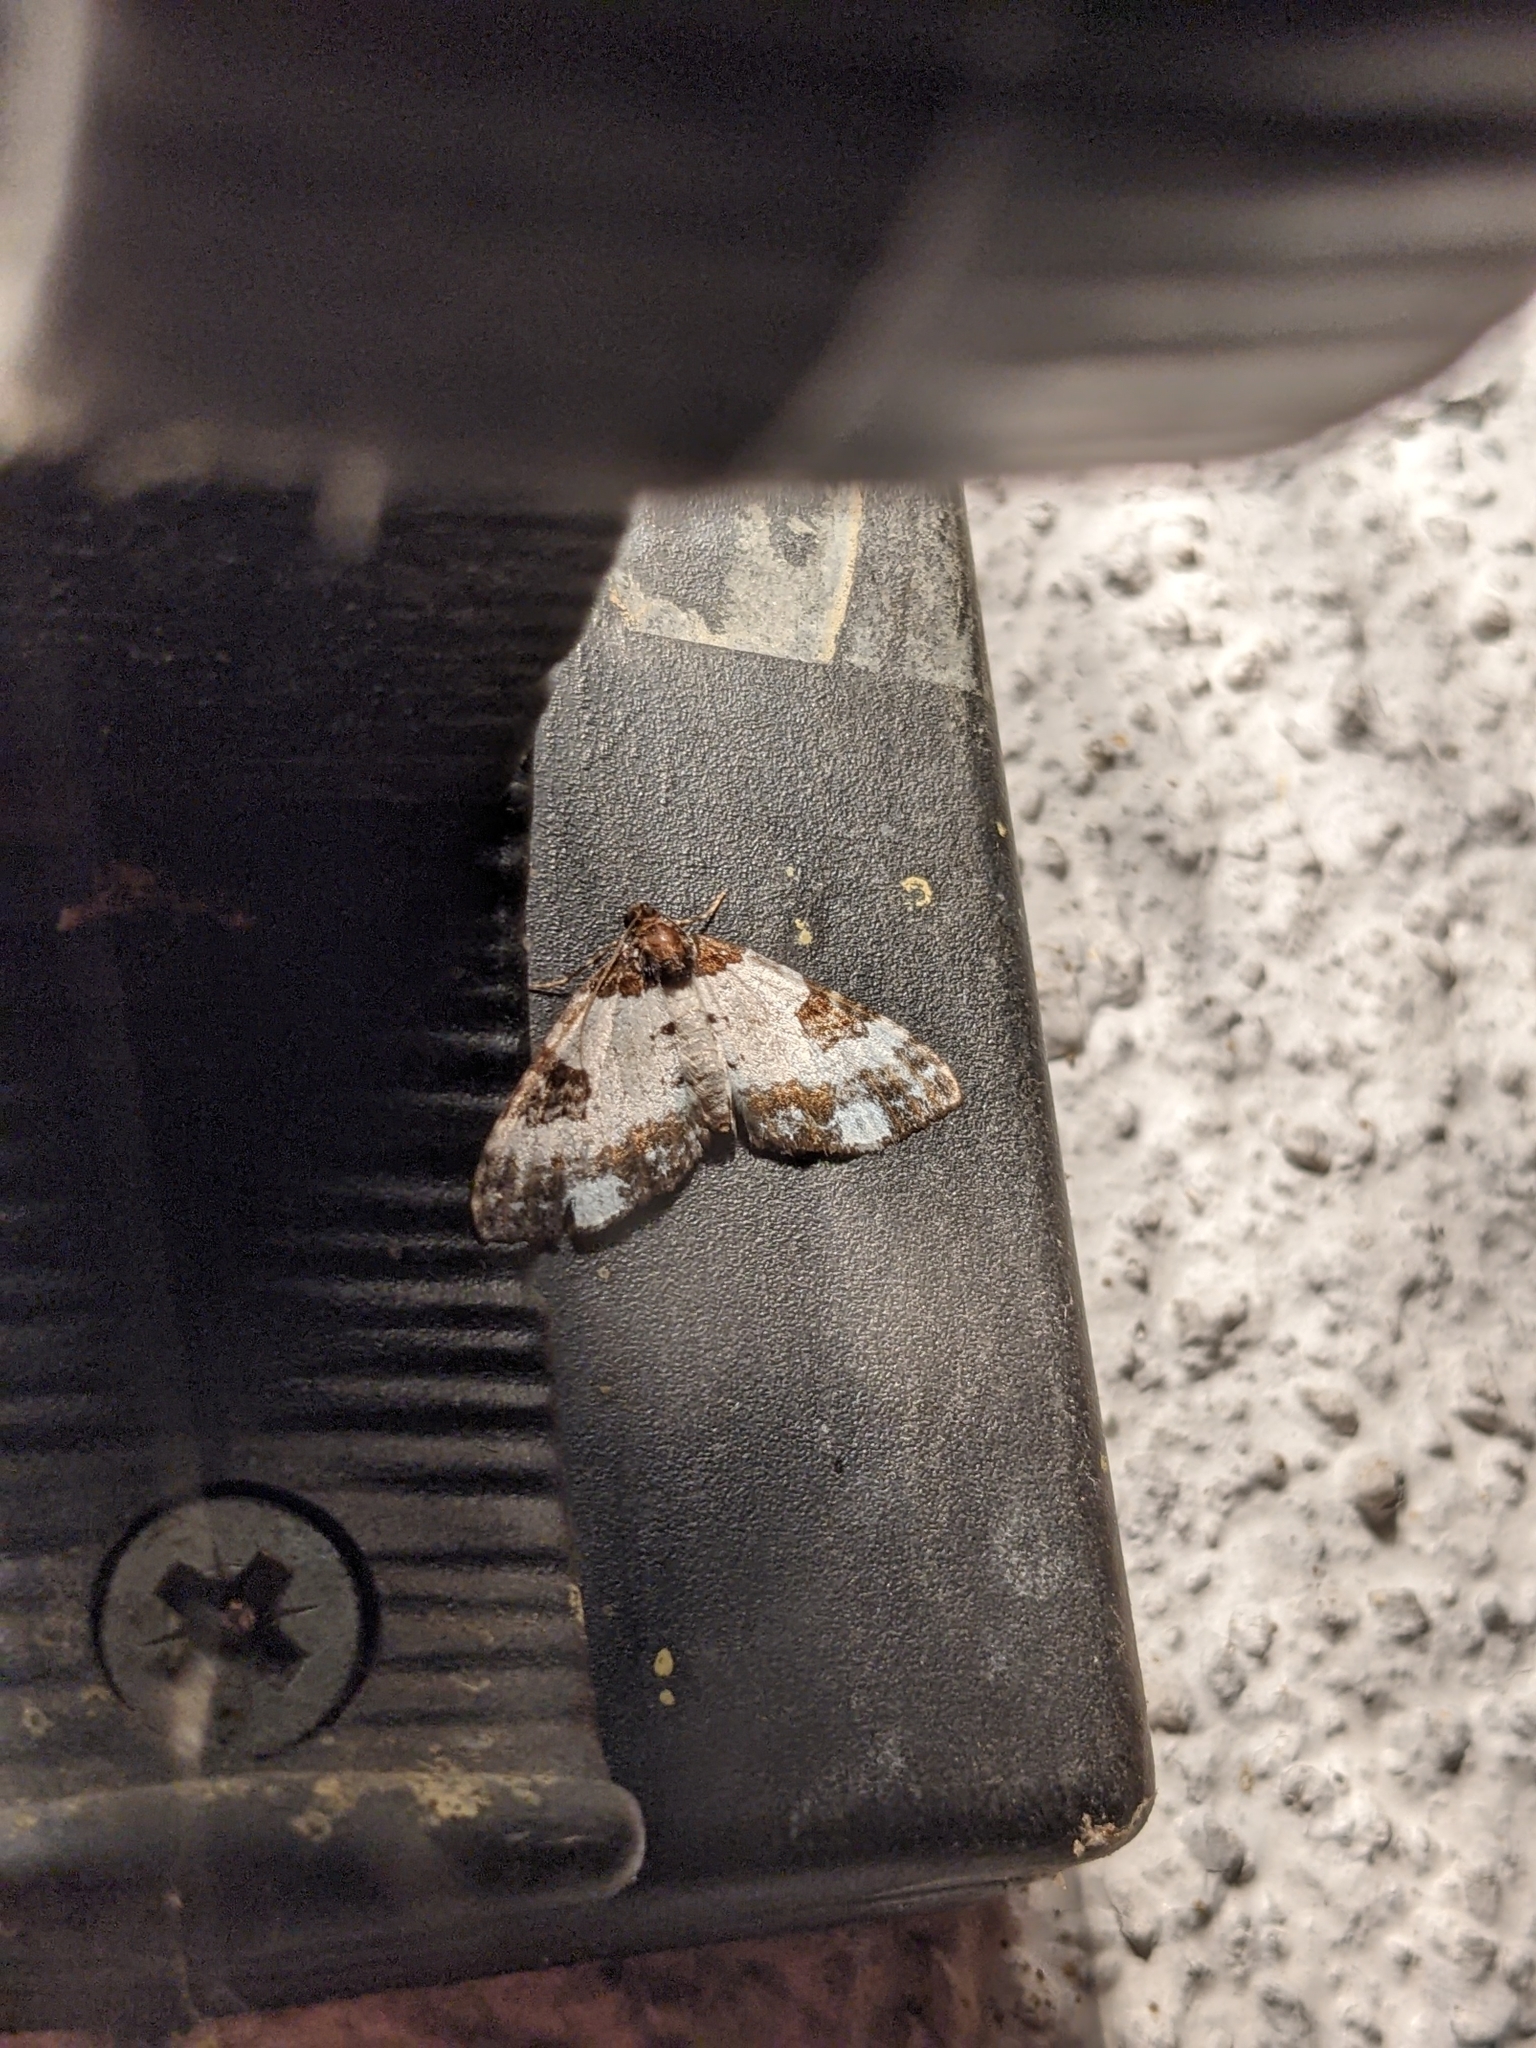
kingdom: Animalia
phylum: Arthropoda
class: Insecta
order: Lepidoptera
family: Geometridae
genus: Melanthia
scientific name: Melanthia procellata
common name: Pretty chalk carpet
